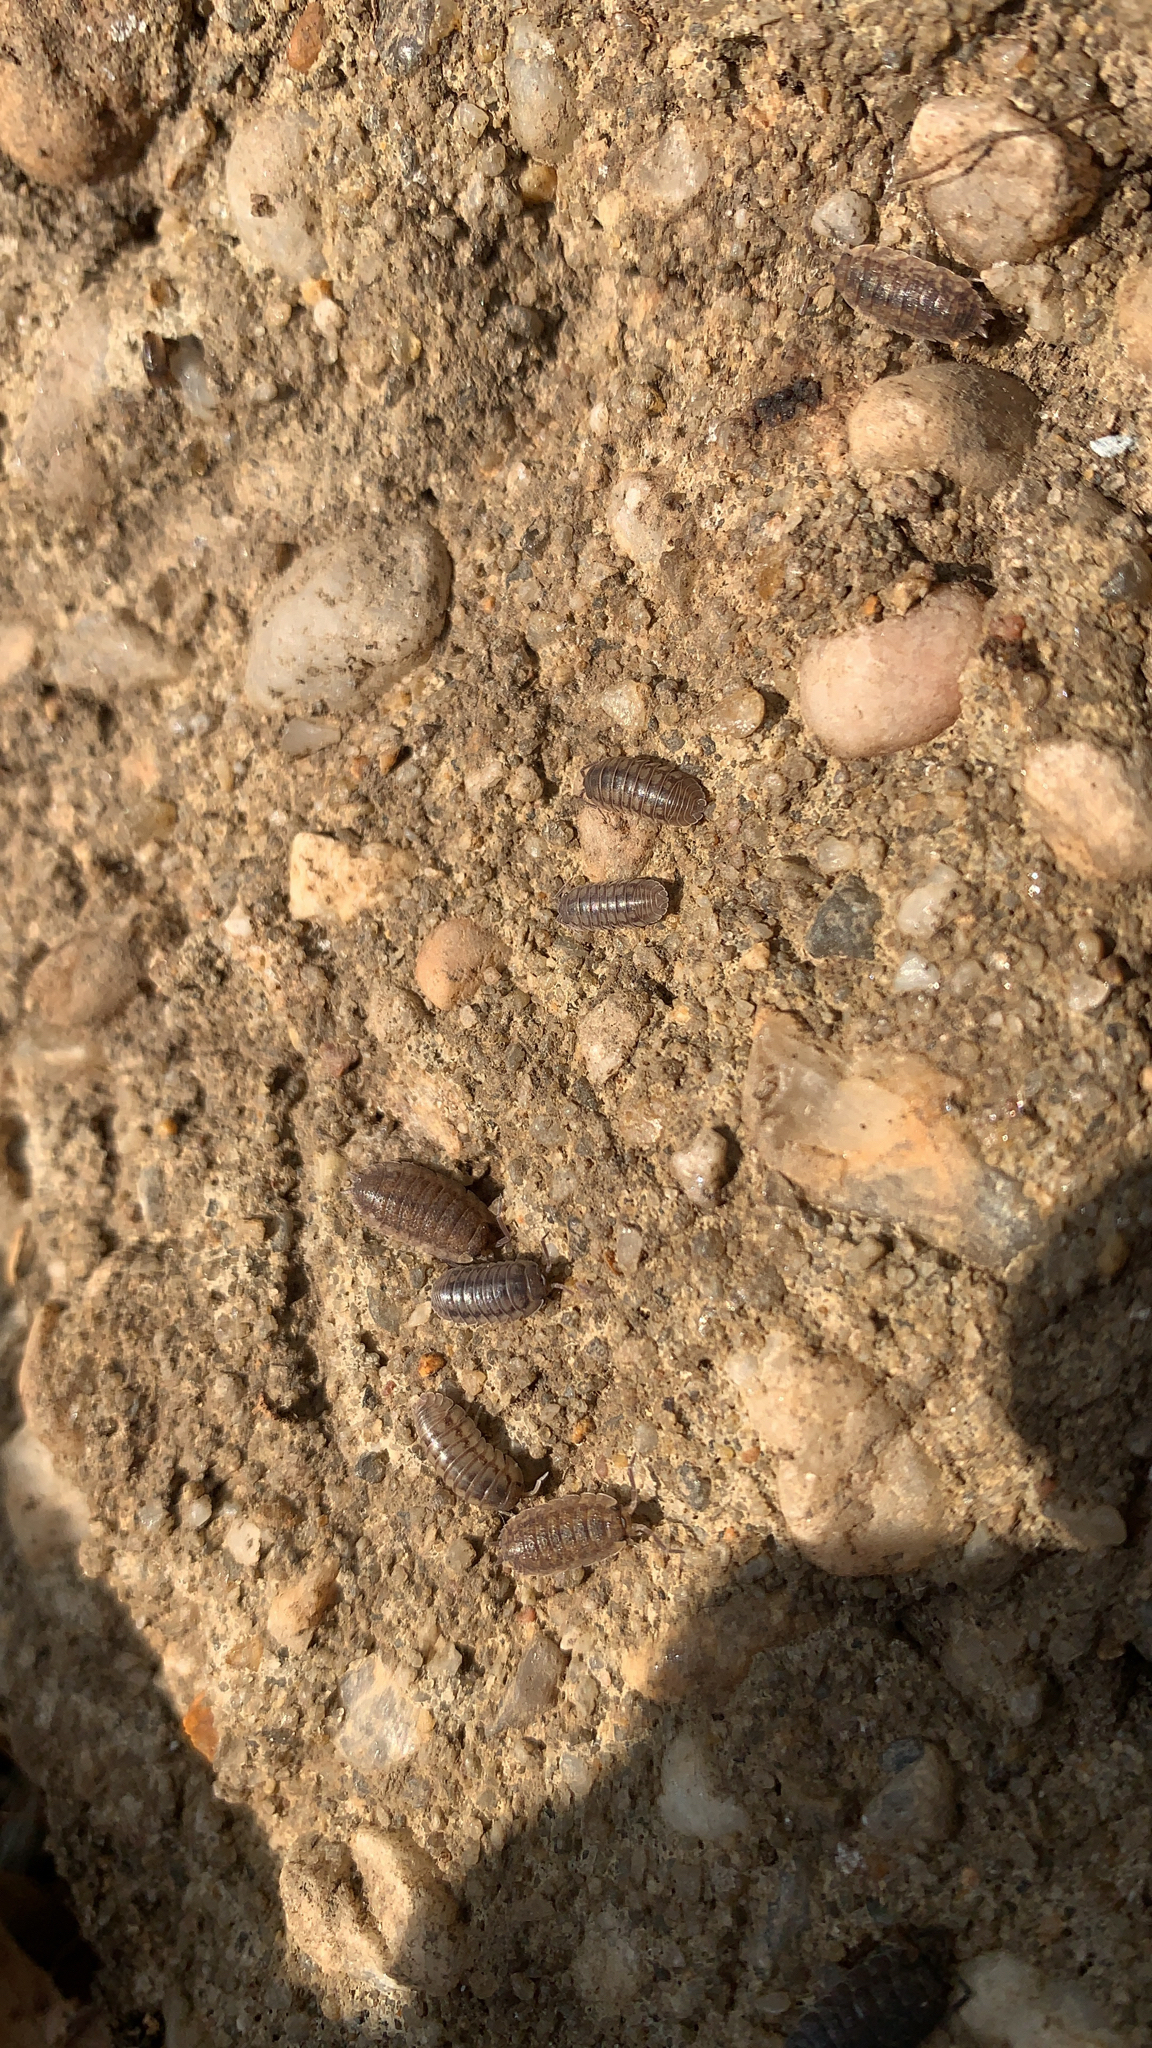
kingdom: Animalia
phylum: Arthropoda
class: Malacostraca
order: Isopoda
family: Armadillidiidae
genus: Armadillidium
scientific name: Armadillidium nasatum
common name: Isopod
